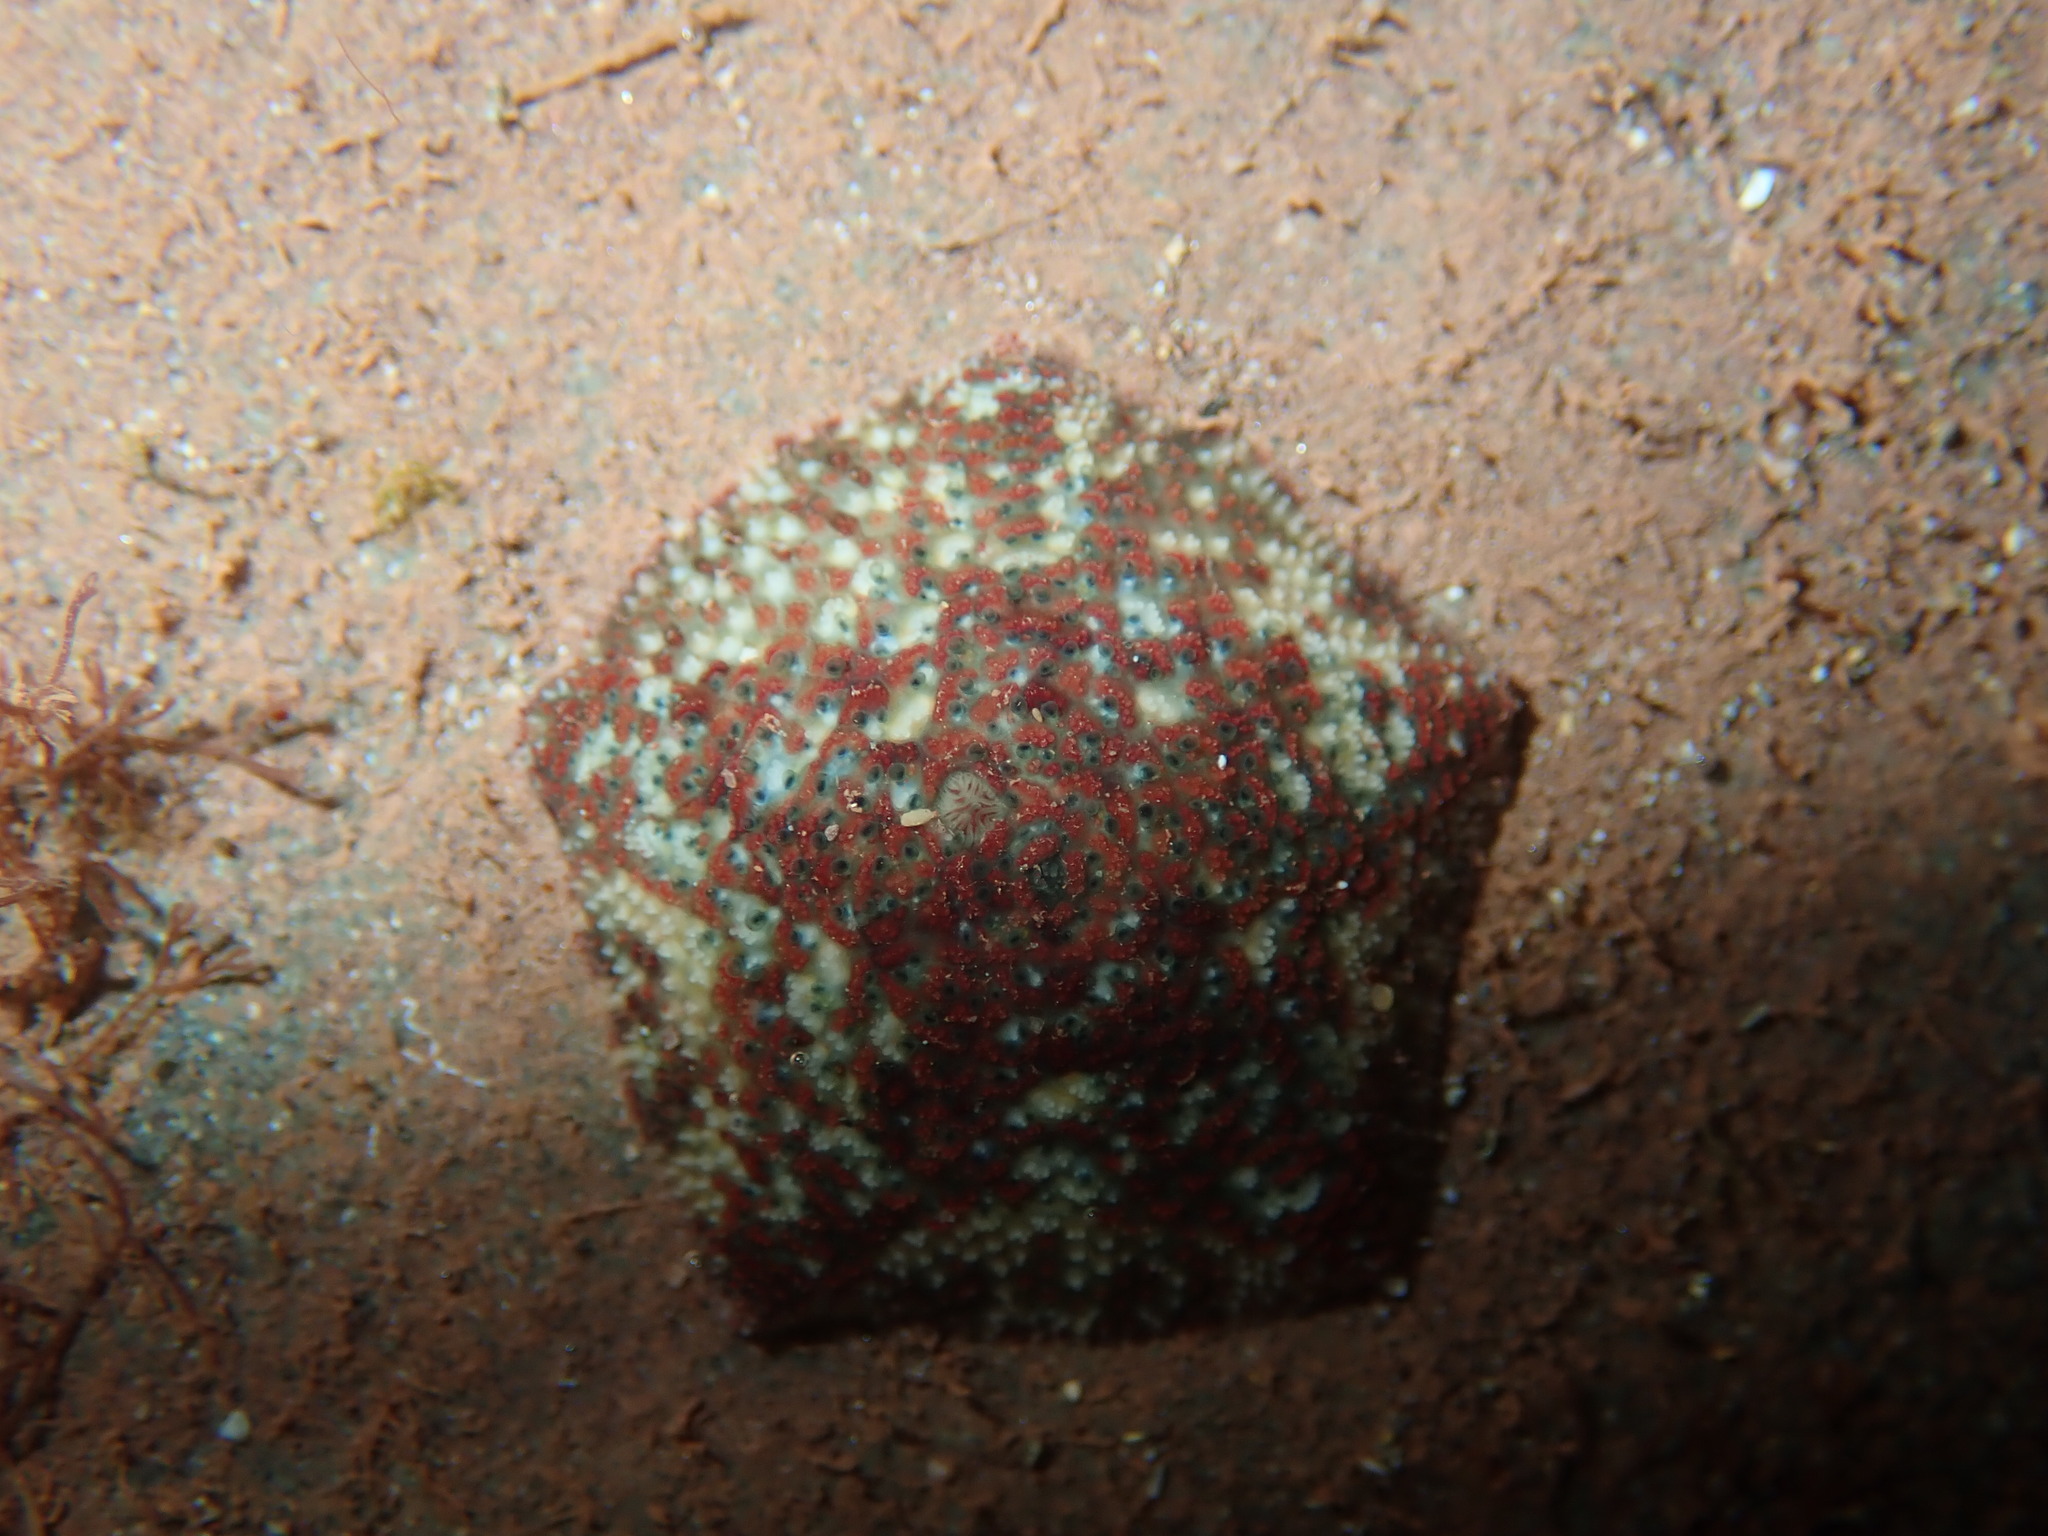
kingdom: Animalia
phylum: Echinodermata
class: Asteroidea
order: Valvatida
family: Asterinidae
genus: Parvulastra
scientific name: Parvulastra exigua
